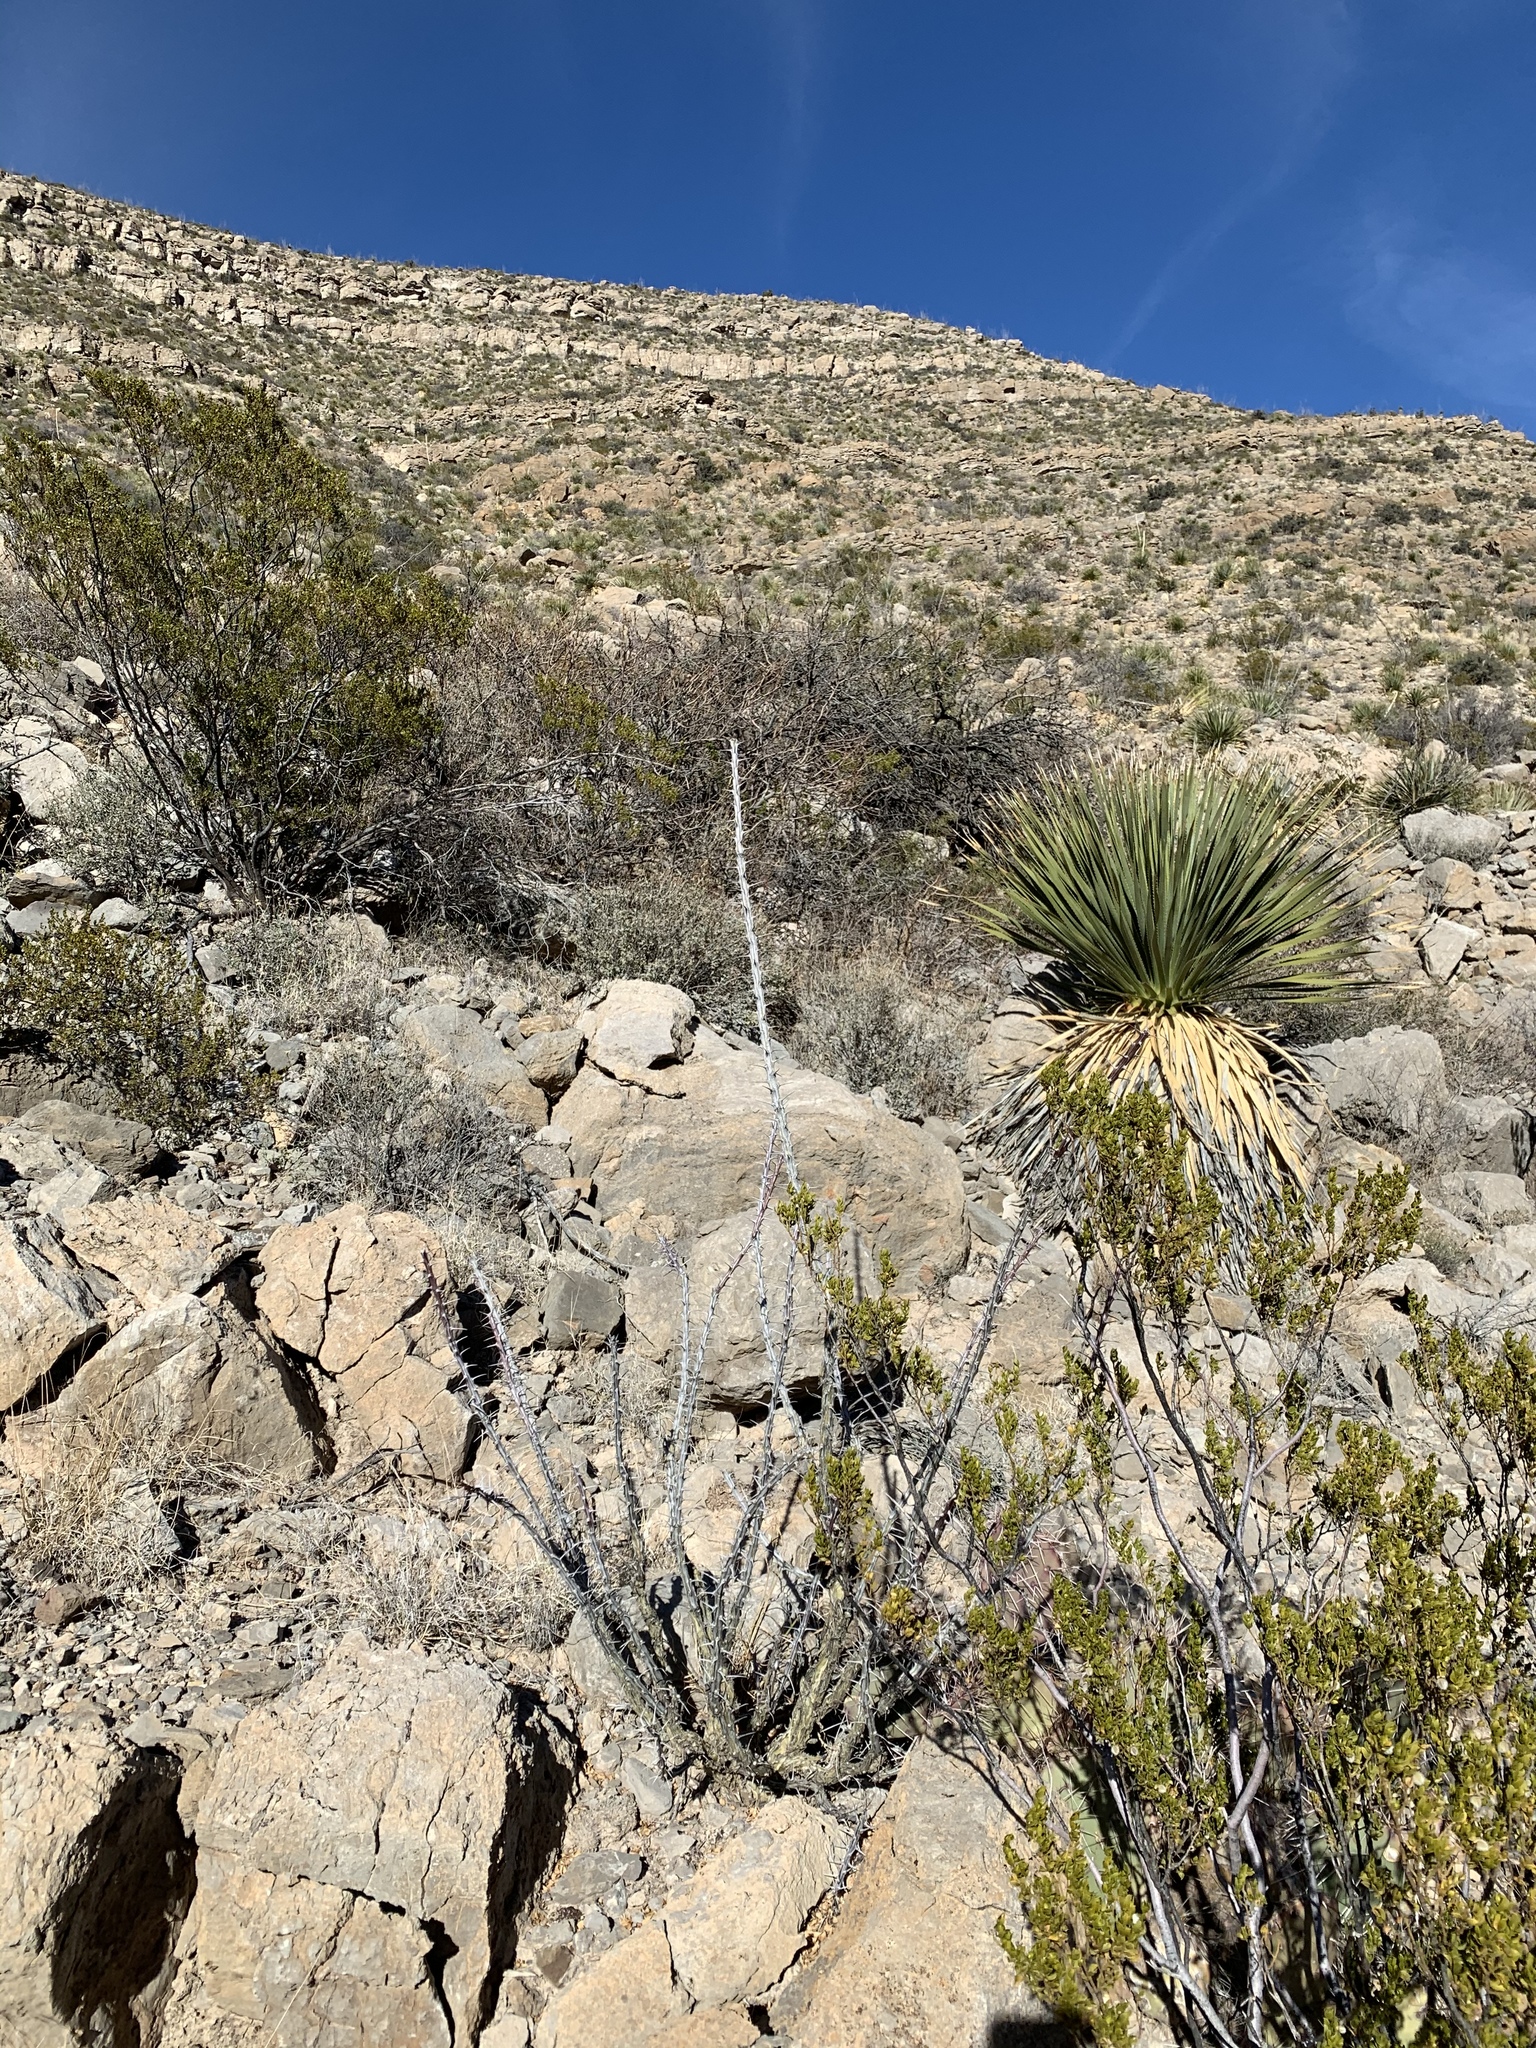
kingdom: Plantae
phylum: Tracheophyta
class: Magnoliopsida
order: Ericales
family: Fouquieriaceae
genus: Fouquieria
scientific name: Fouquieria splendens
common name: Vine-cactus
